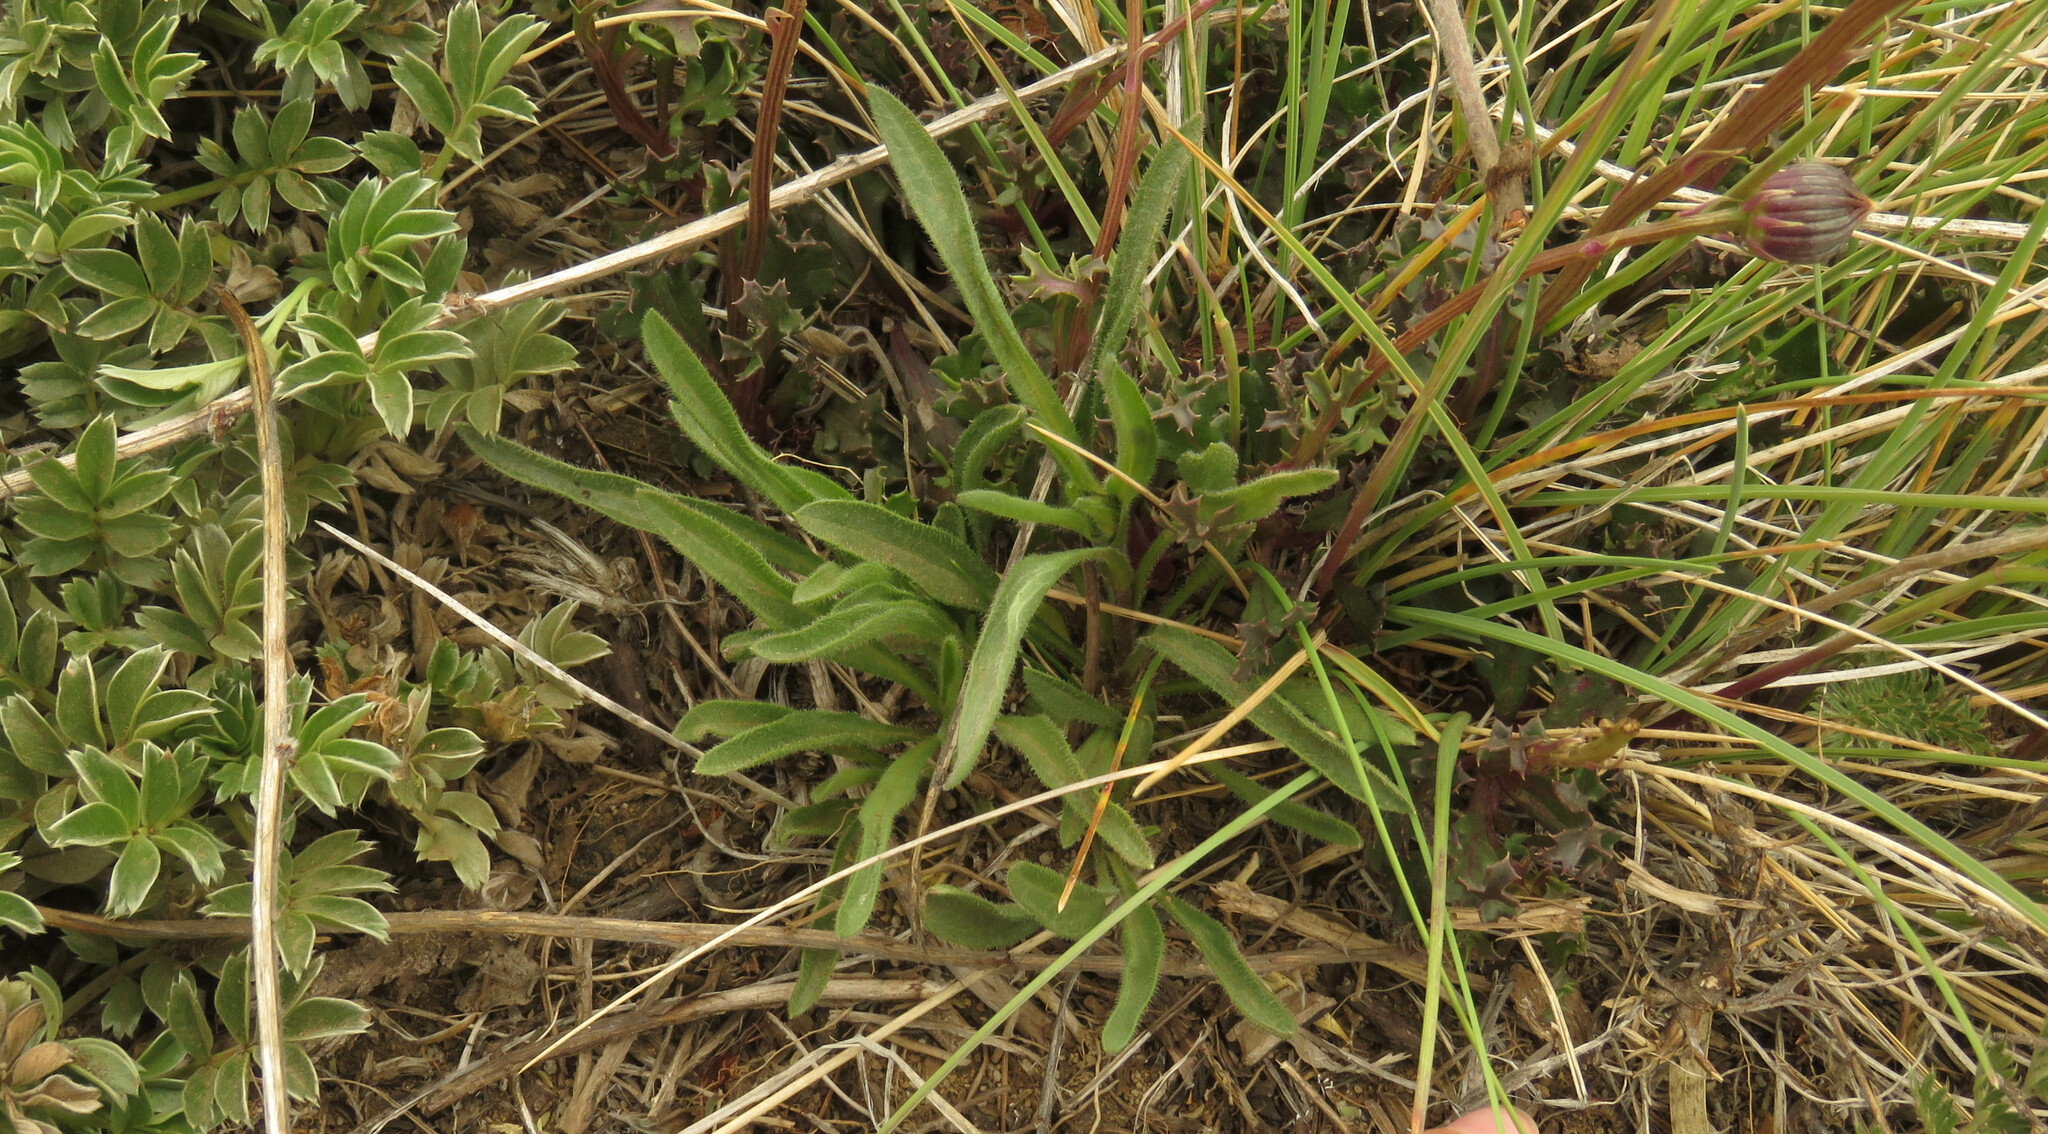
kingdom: Plantae
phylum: Tracheophyta
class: Magnoliopsida
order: Asterales
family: Asteraceae
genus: Senecio
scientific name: Senecio kingii
